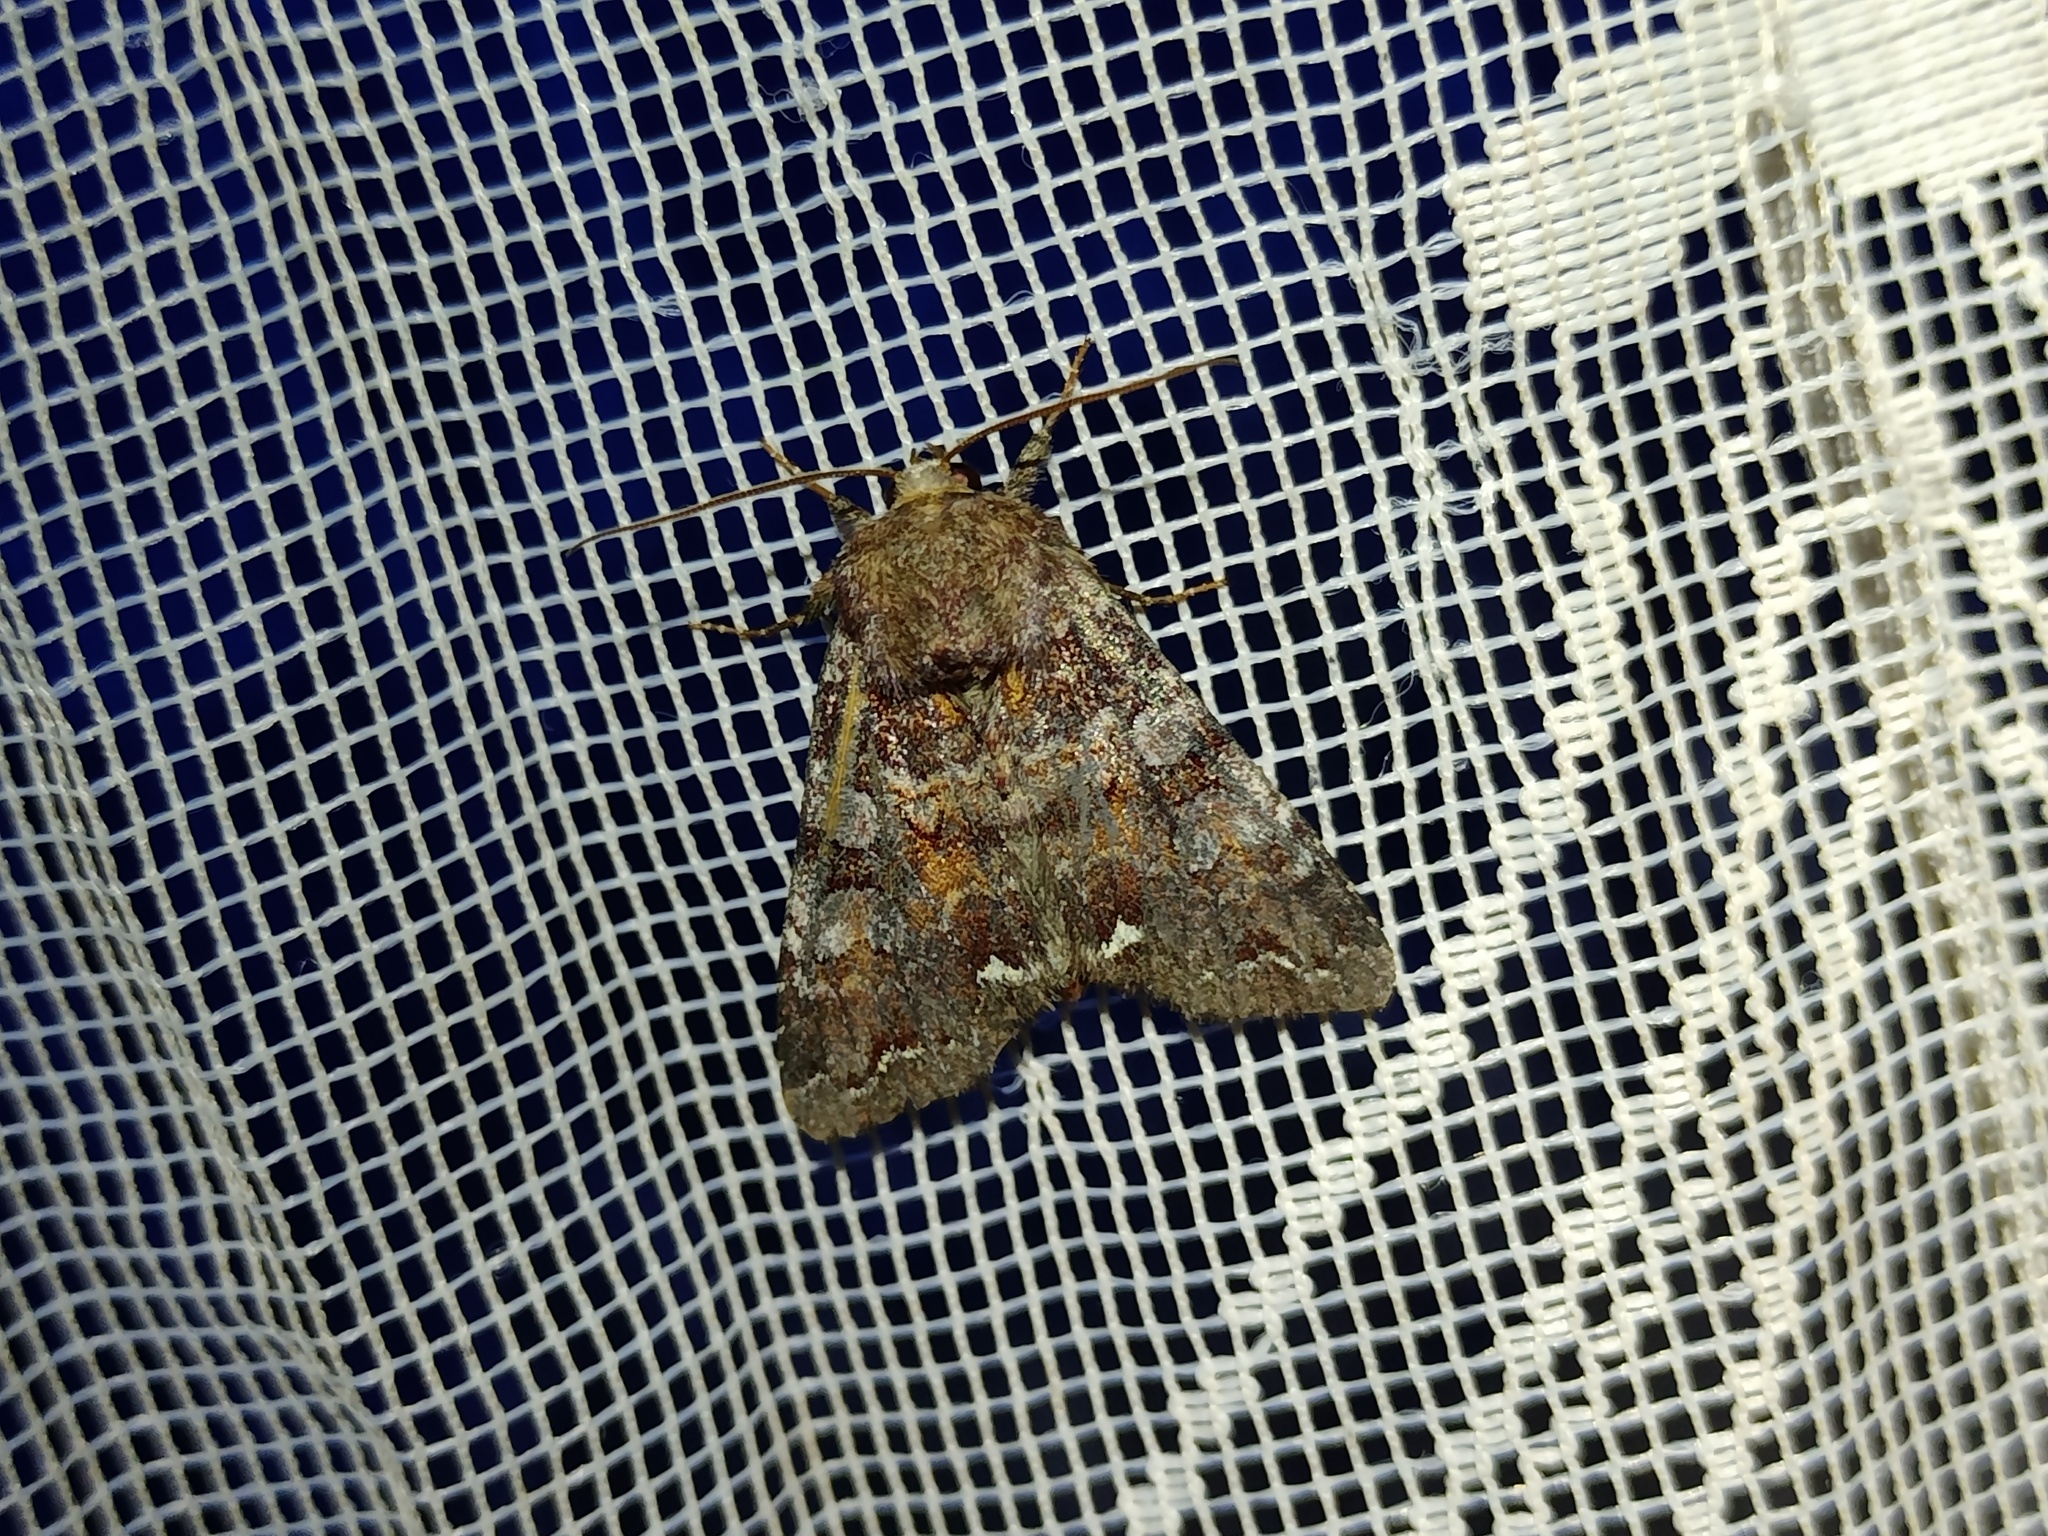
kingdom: Animalia
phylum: Arthropoda
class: Insecta
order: Lepidoptera
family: Noctuidae
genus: Ceramica
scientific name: Ceramica pisi
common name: Broom moth
